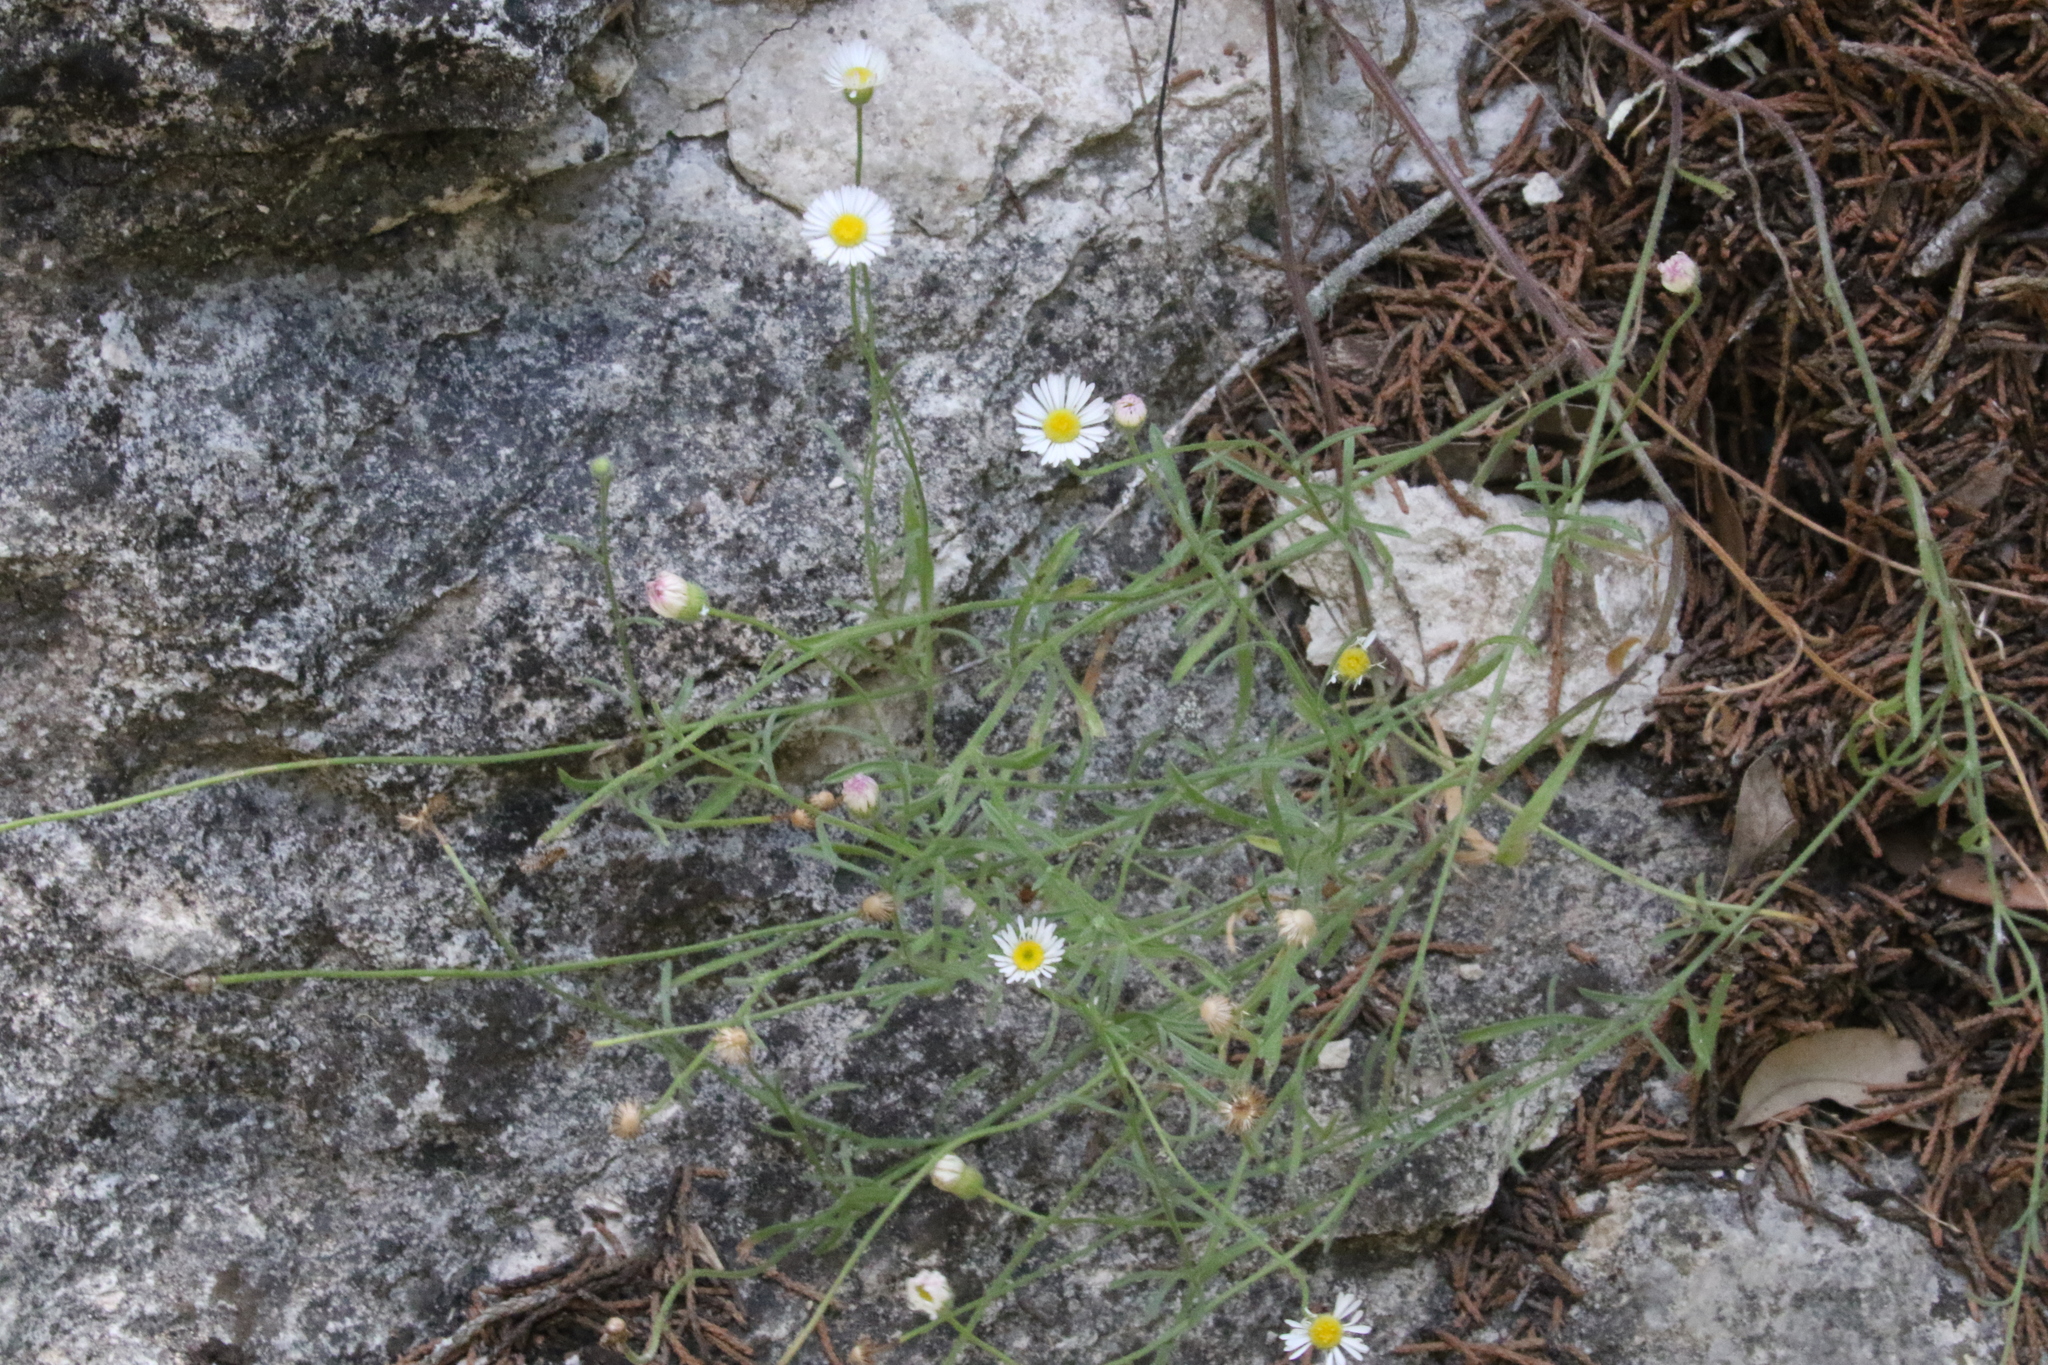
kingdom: Plantae
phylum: Tracheophyta
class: Magnoliopsida
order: Asterales
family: Asteraceae
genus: Erigeron
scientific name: Erigeron modestus
